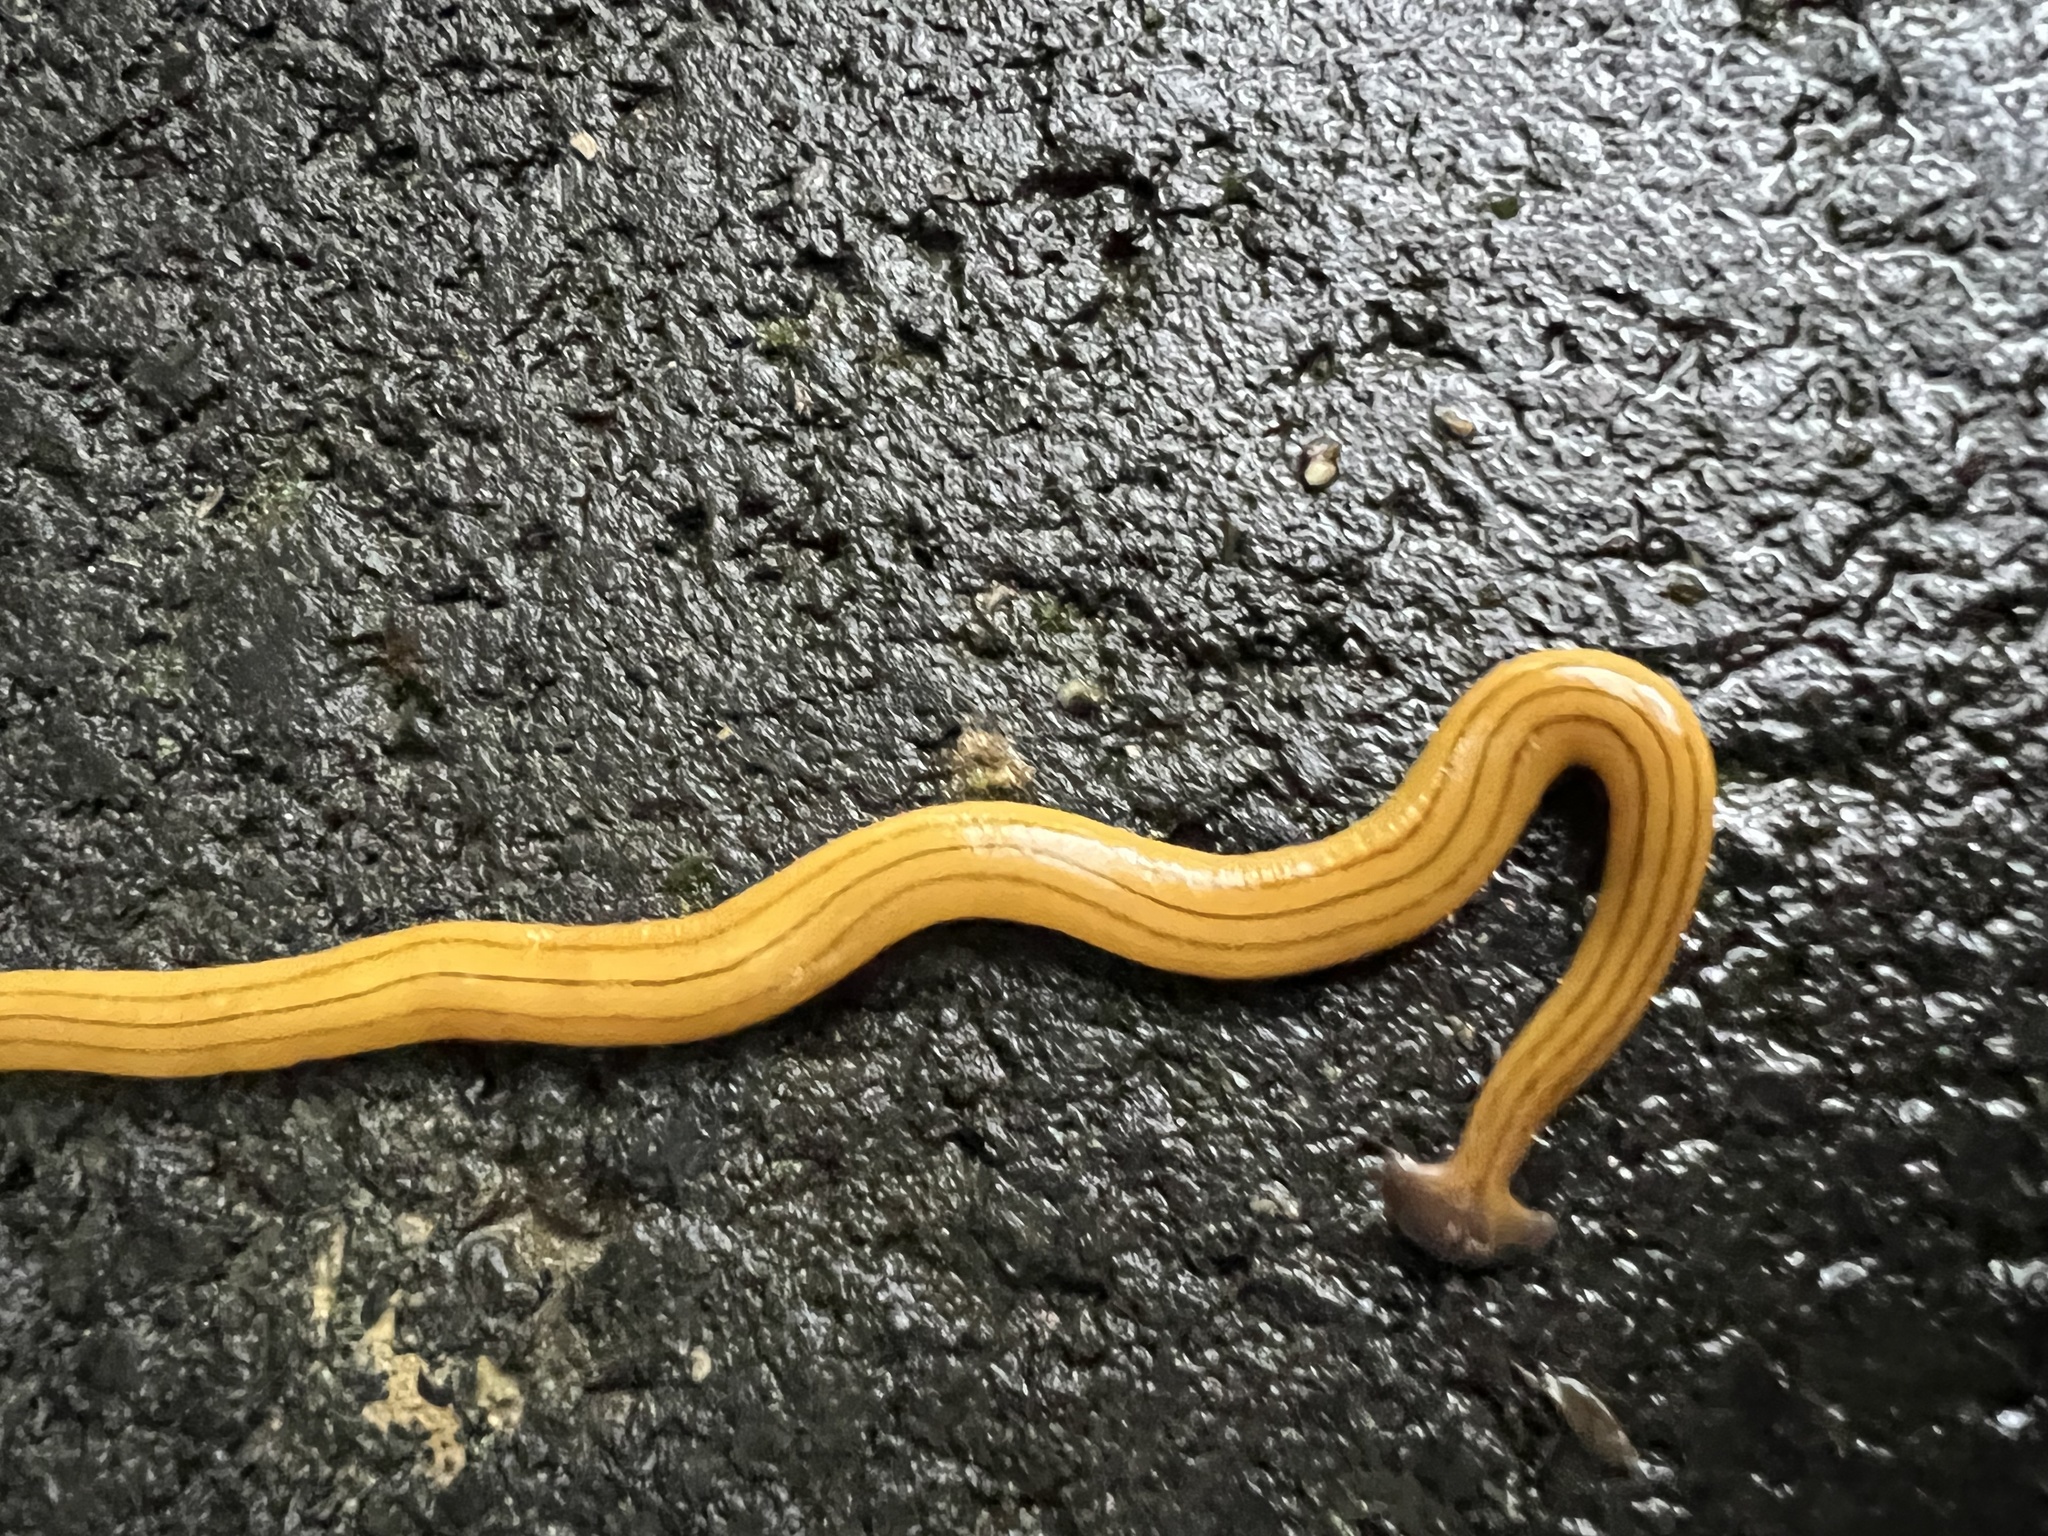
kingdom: Animalia
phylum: Platyhelminthes
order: Tricladida
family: Geoplanidae
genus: Bipalium
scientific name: Bipalium nobile
